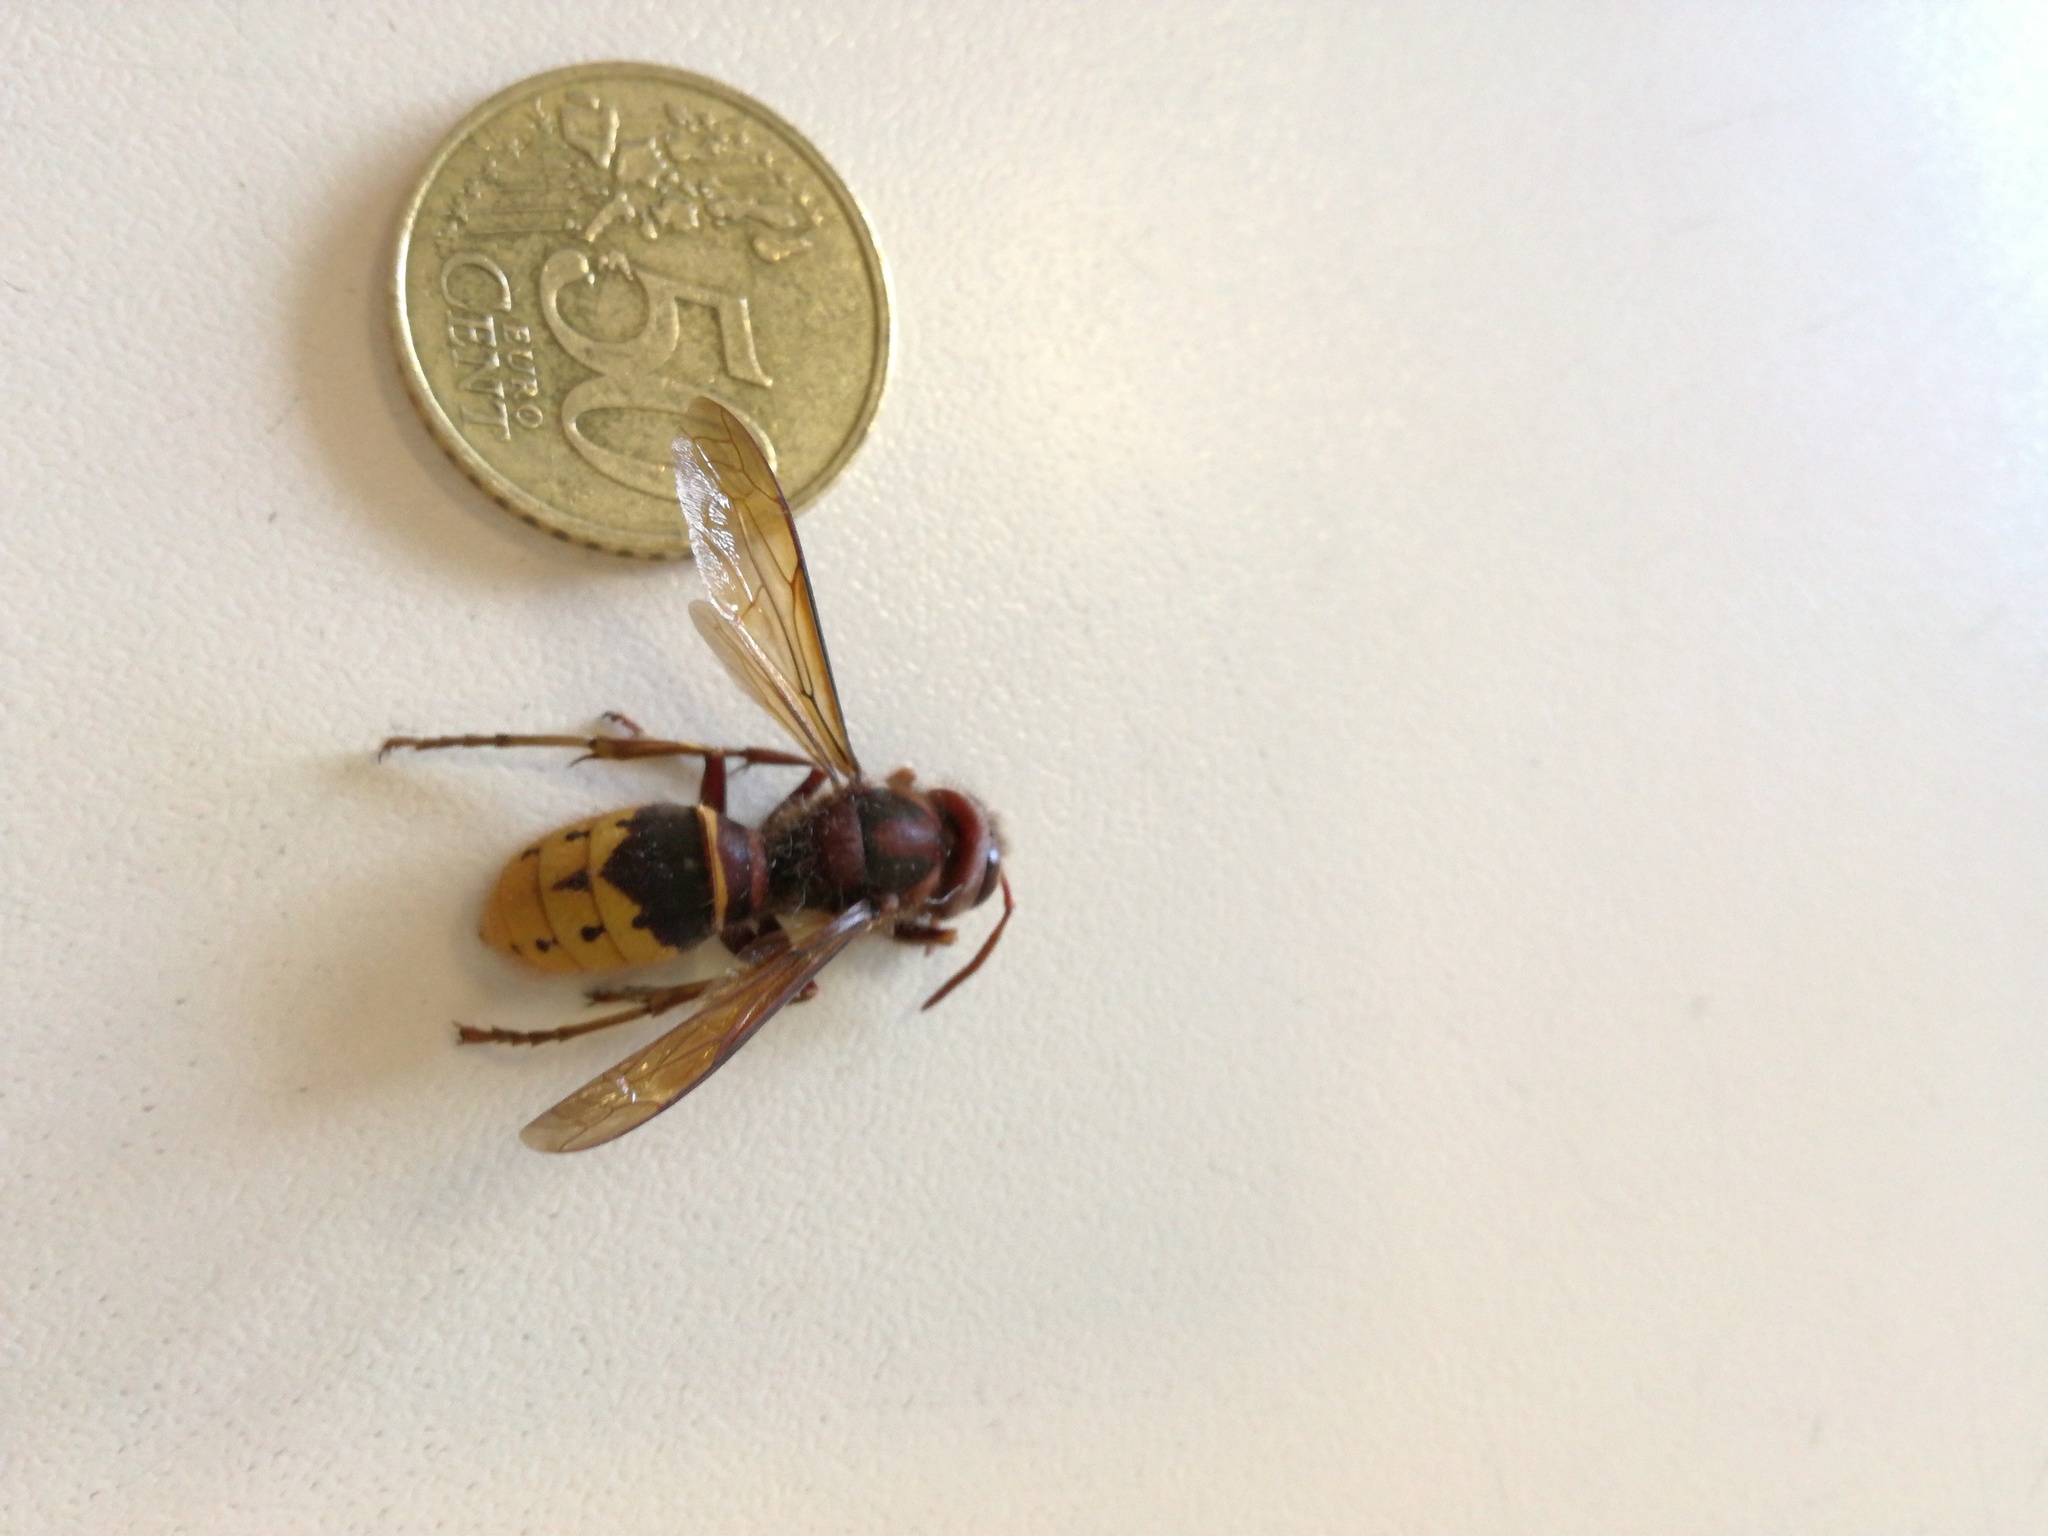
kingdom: Animalia
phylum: Arthropoda
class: Insecta
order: Hymenoptera
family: Vespidae
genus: Vespa
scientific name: Vespa crabro
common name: Hornet
